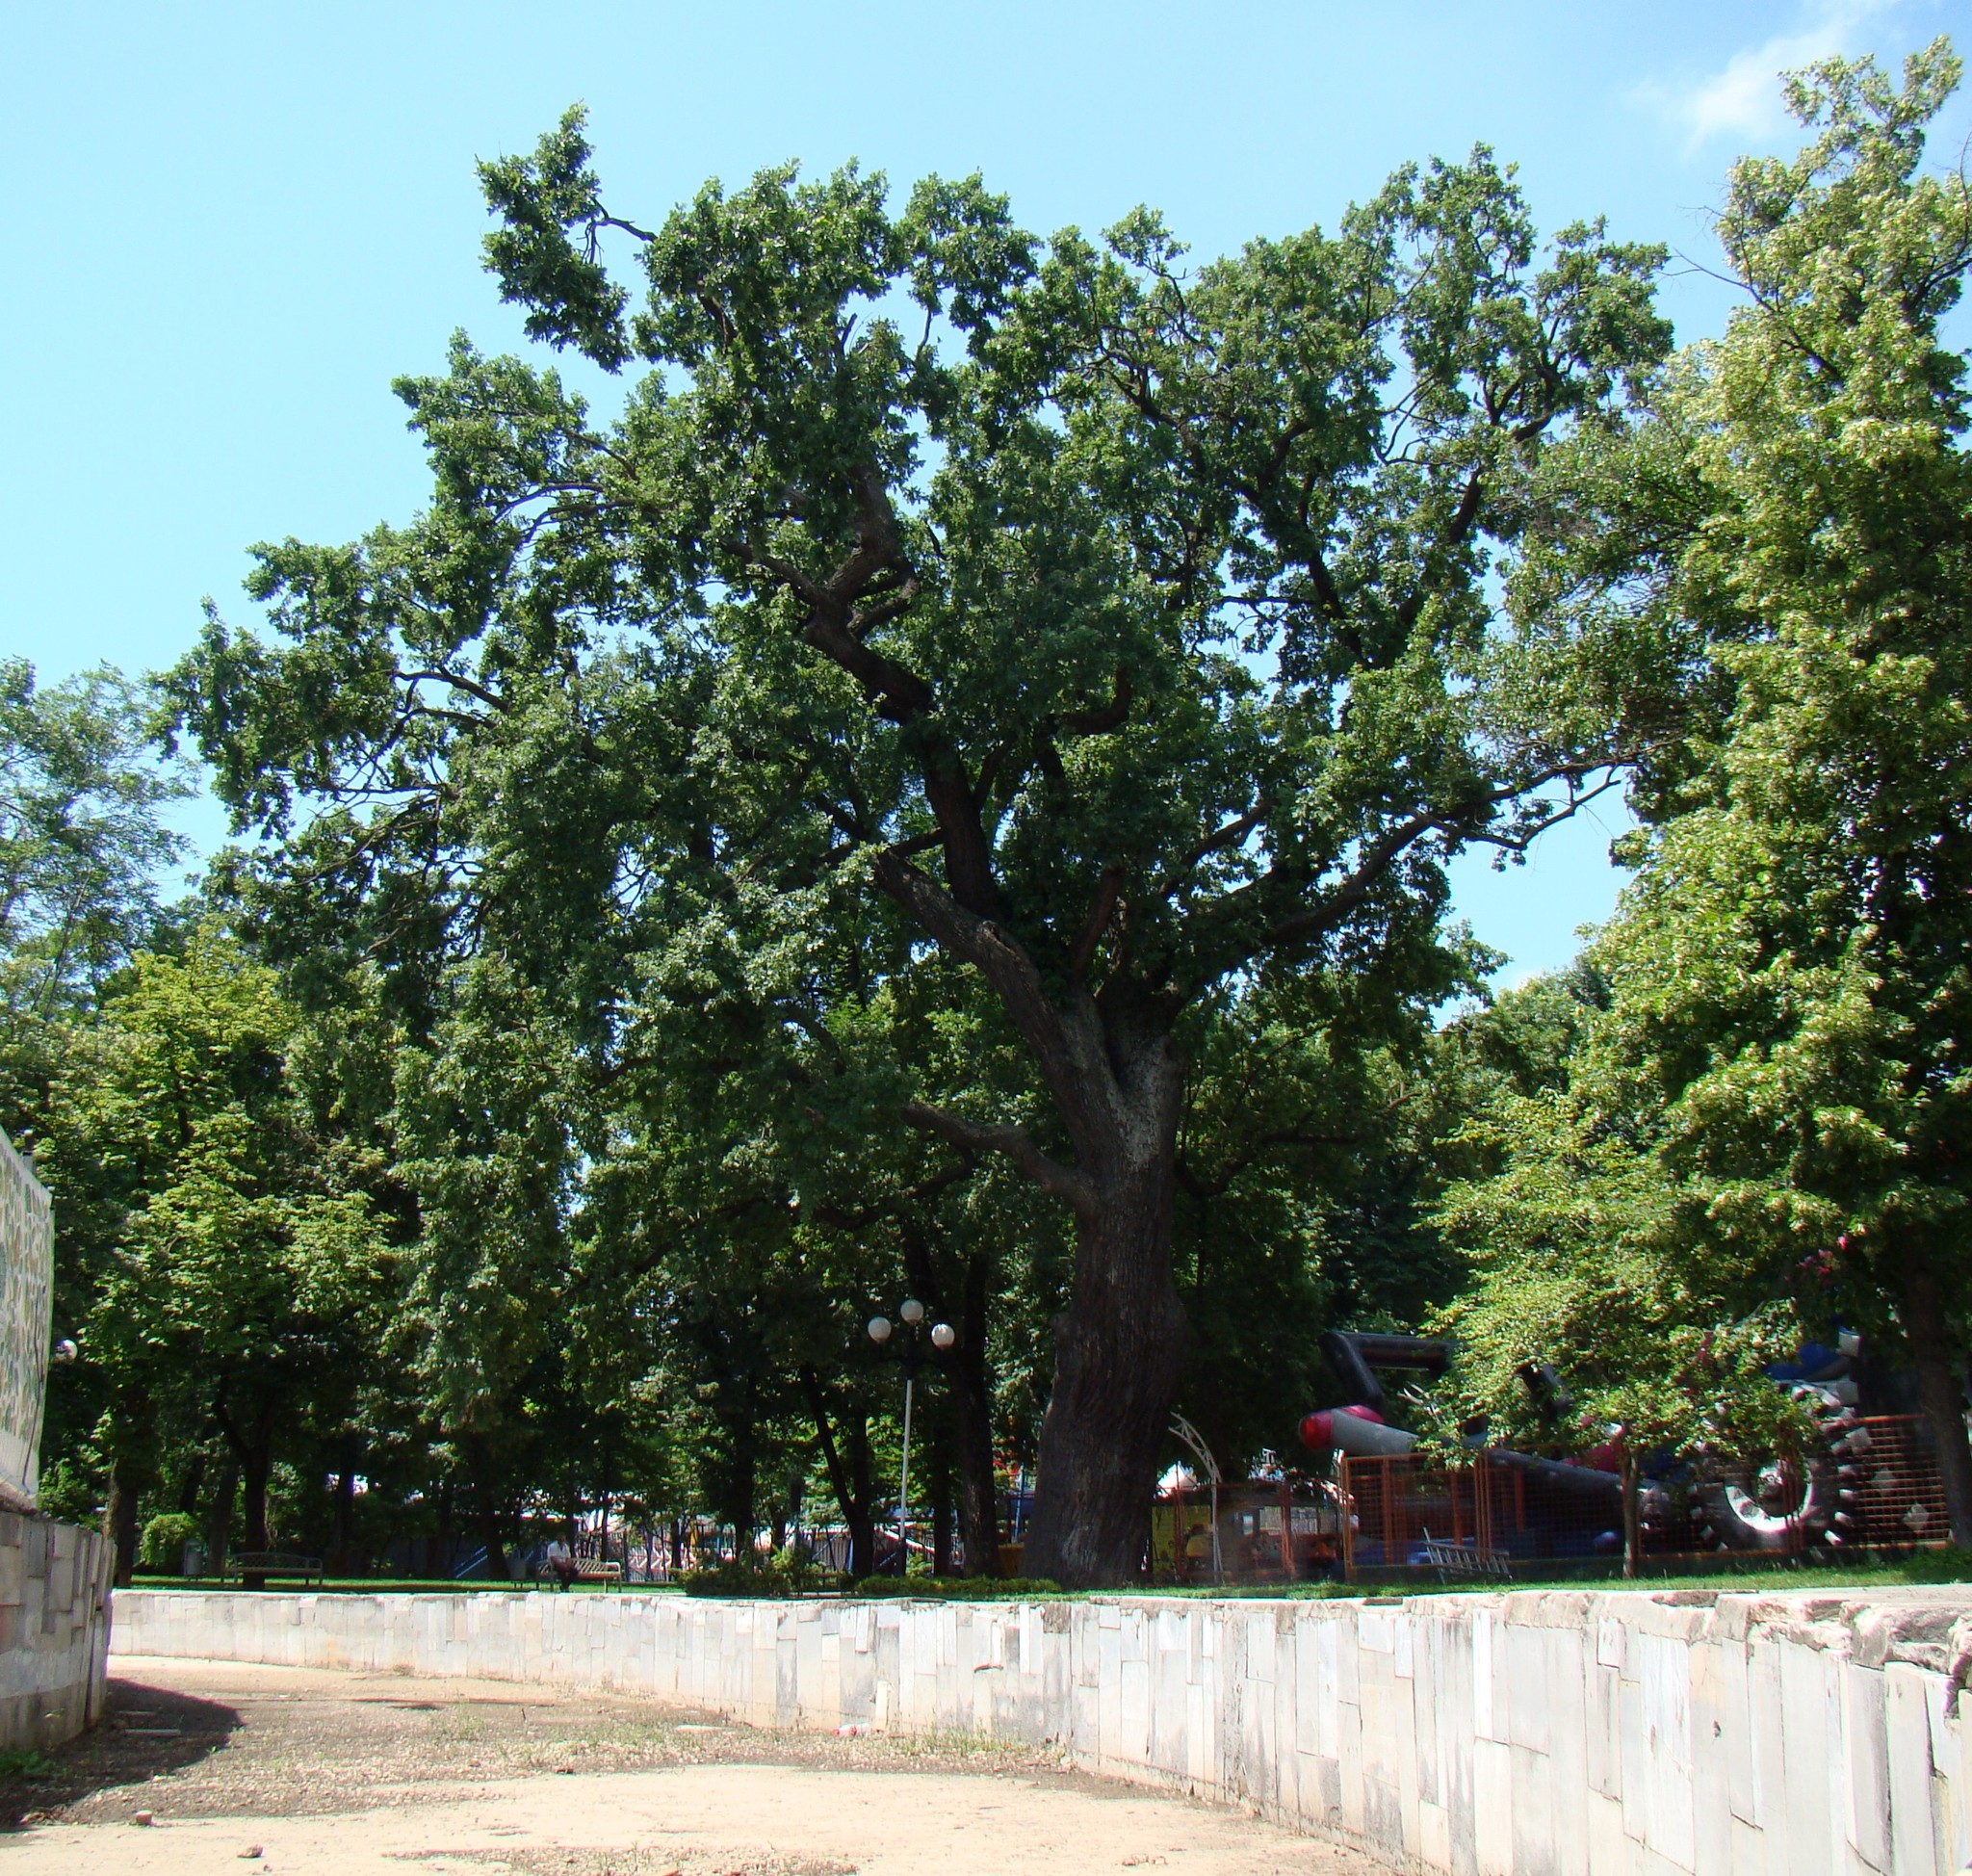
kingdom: Plantae
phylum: Tracheophyta
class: Magnoliopsida
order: Fagales
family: Fagaceae
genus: Quercus
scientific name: Quercus robur
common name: Pedunculate oak
